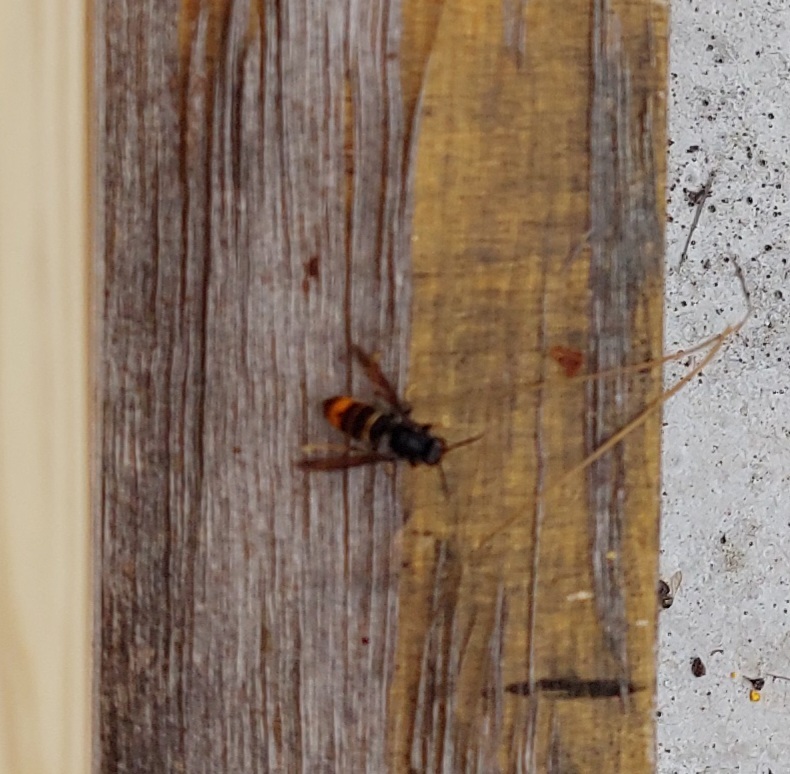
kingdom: Animalia
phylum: Arthropoda
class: Insecta
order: Hymenoptera
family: Vespidae
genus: Vespa
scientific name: Vespa velutina
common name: Asian hornet
